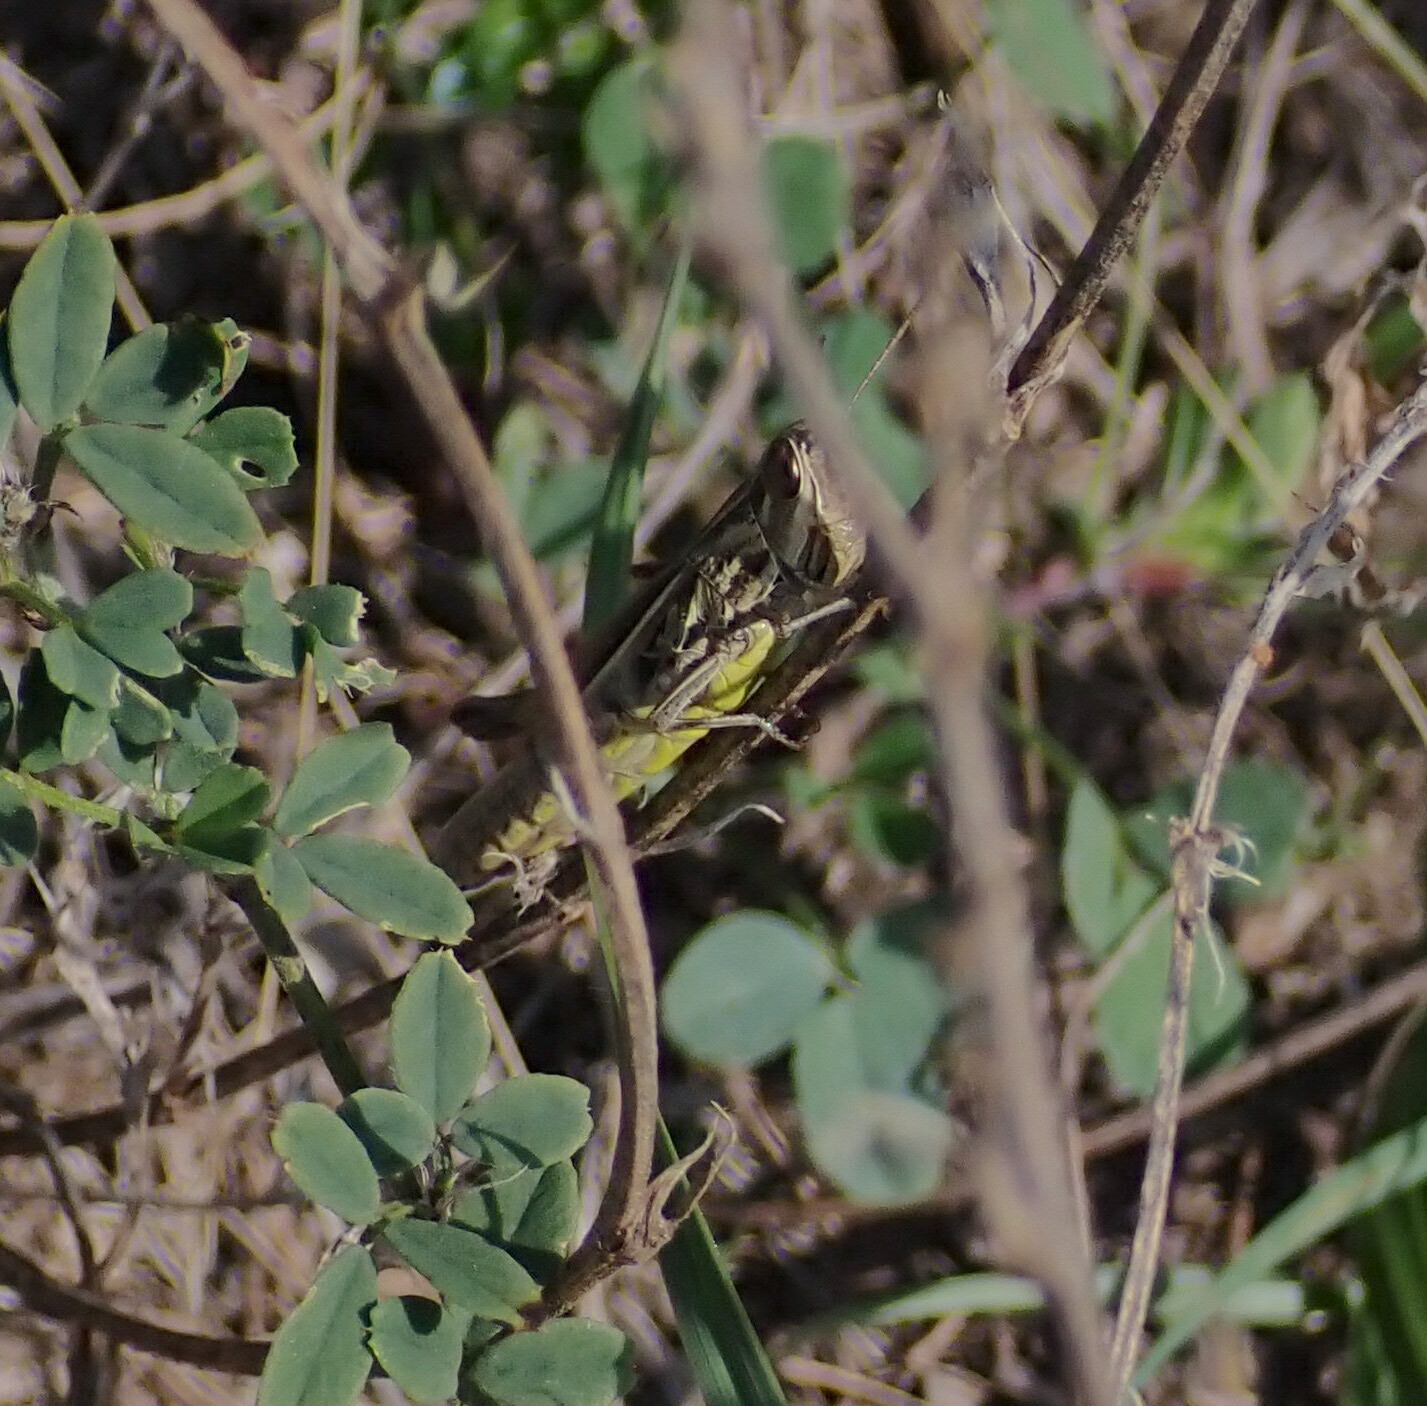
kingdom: Animalia
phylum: Arthropoda
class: Insecta
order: Orthoptera
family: Acrididae
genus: Euchorthippus
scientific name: Euchorthippus declivus
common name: Common straw grasshopper
